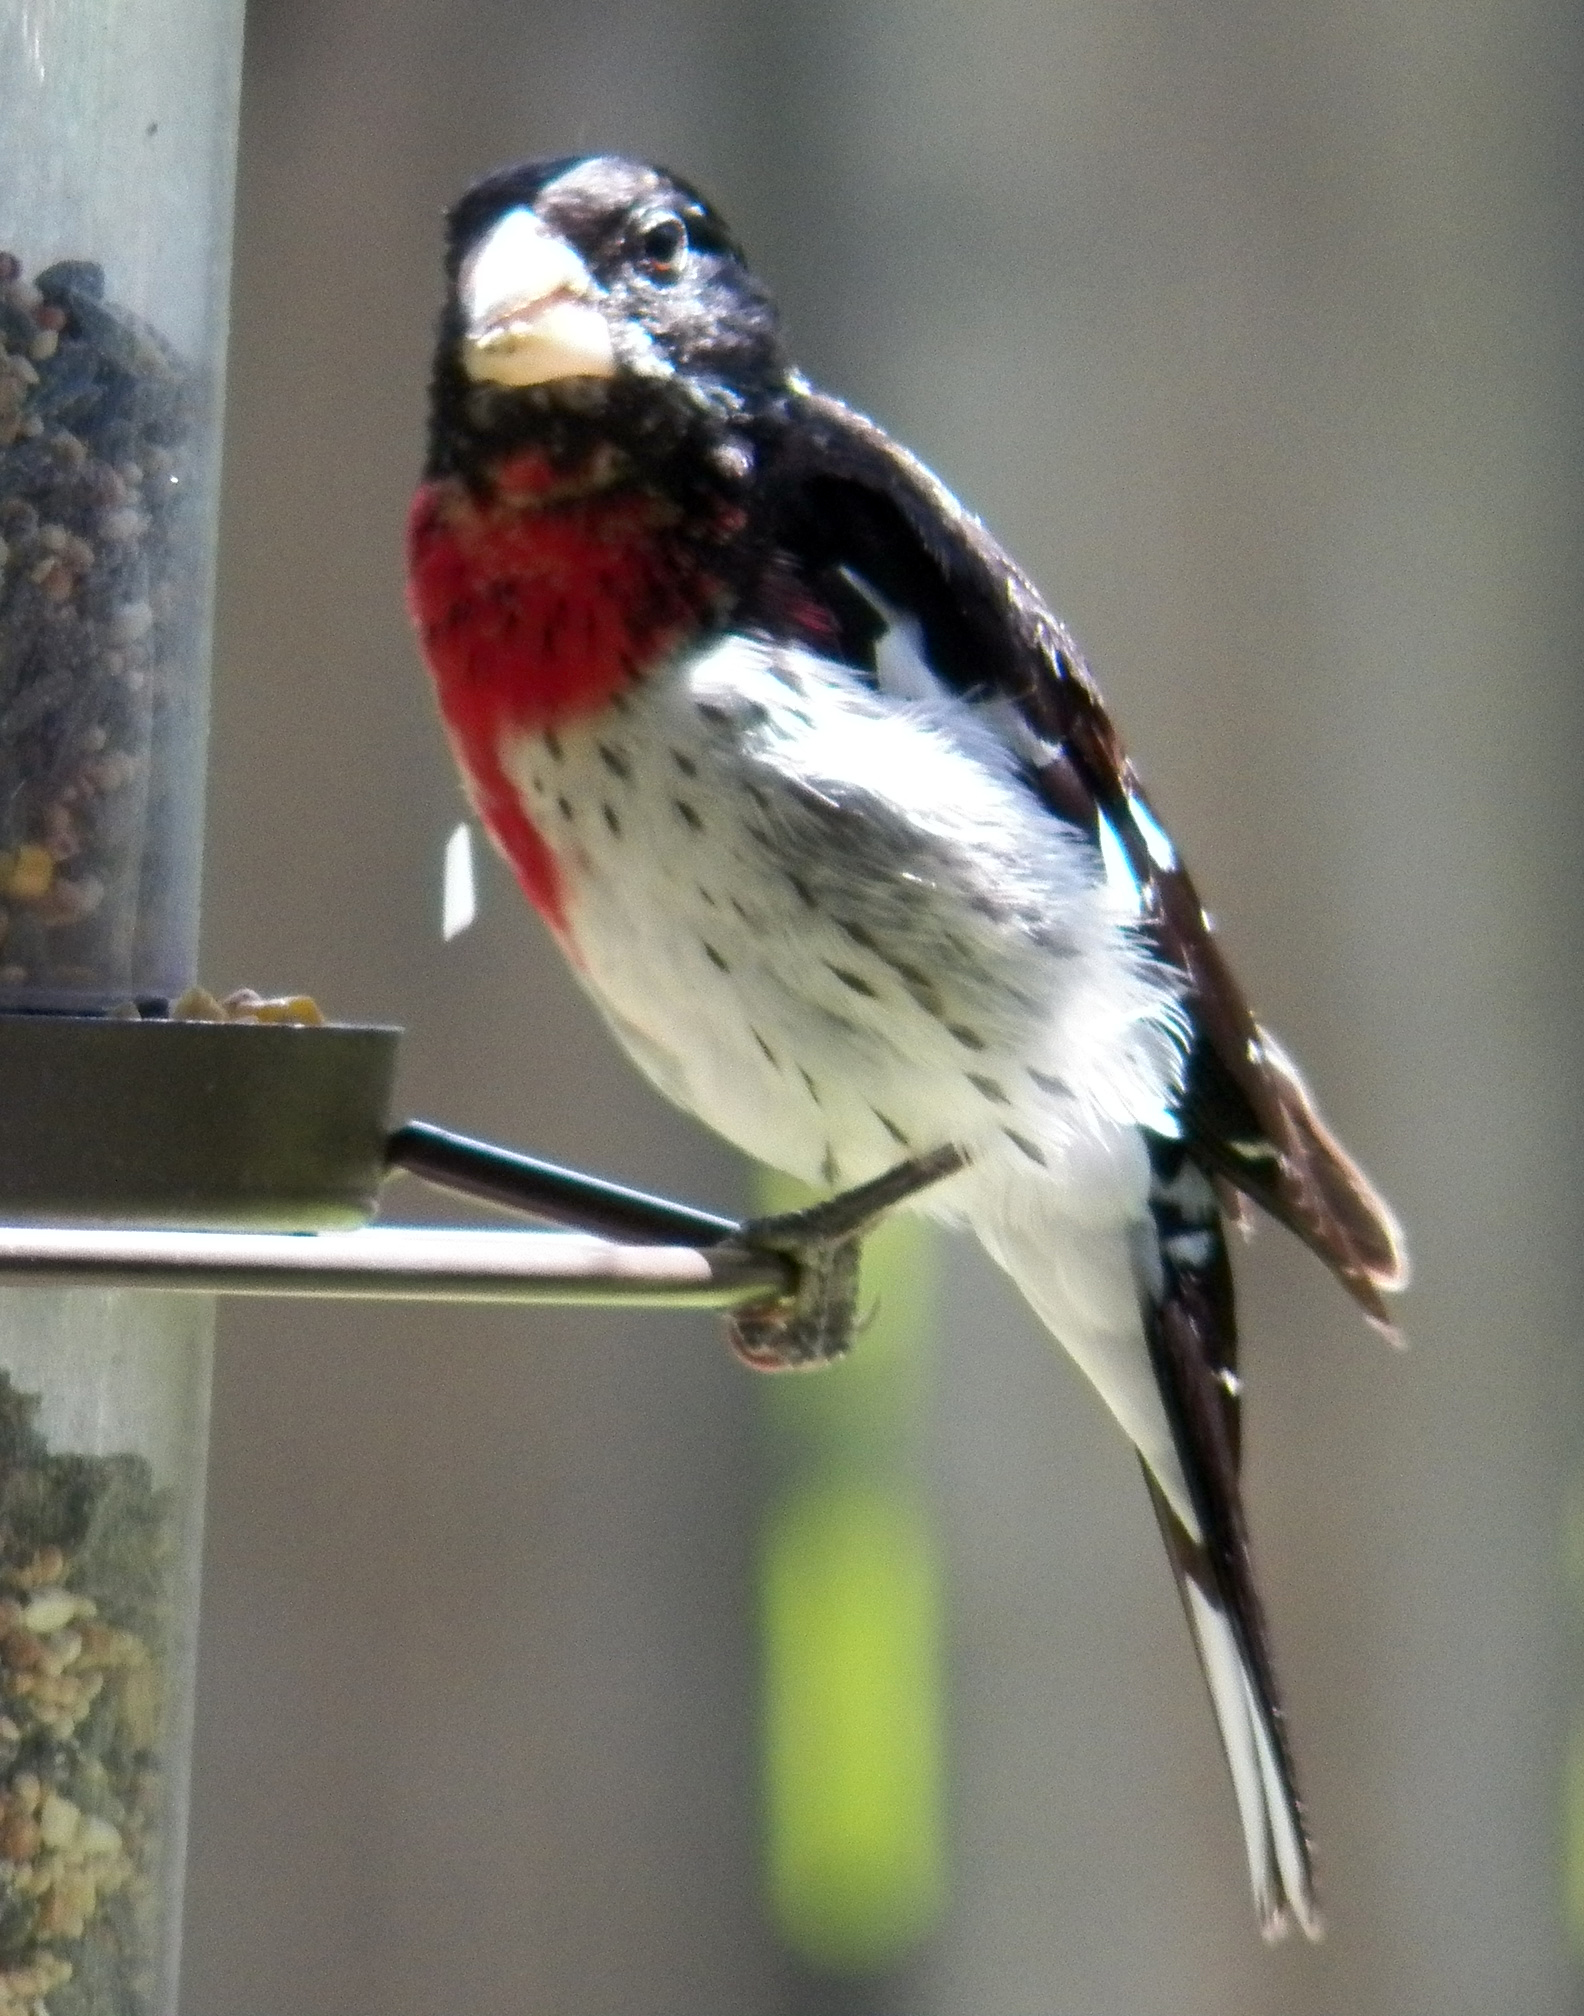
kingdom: Animalia
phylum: Chordata
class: Aves
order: Passeriformes
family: Cardinalidae
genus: Pheucticus
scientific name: Pheucticus ludovicianus
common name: Rose-breasted grosbeak
